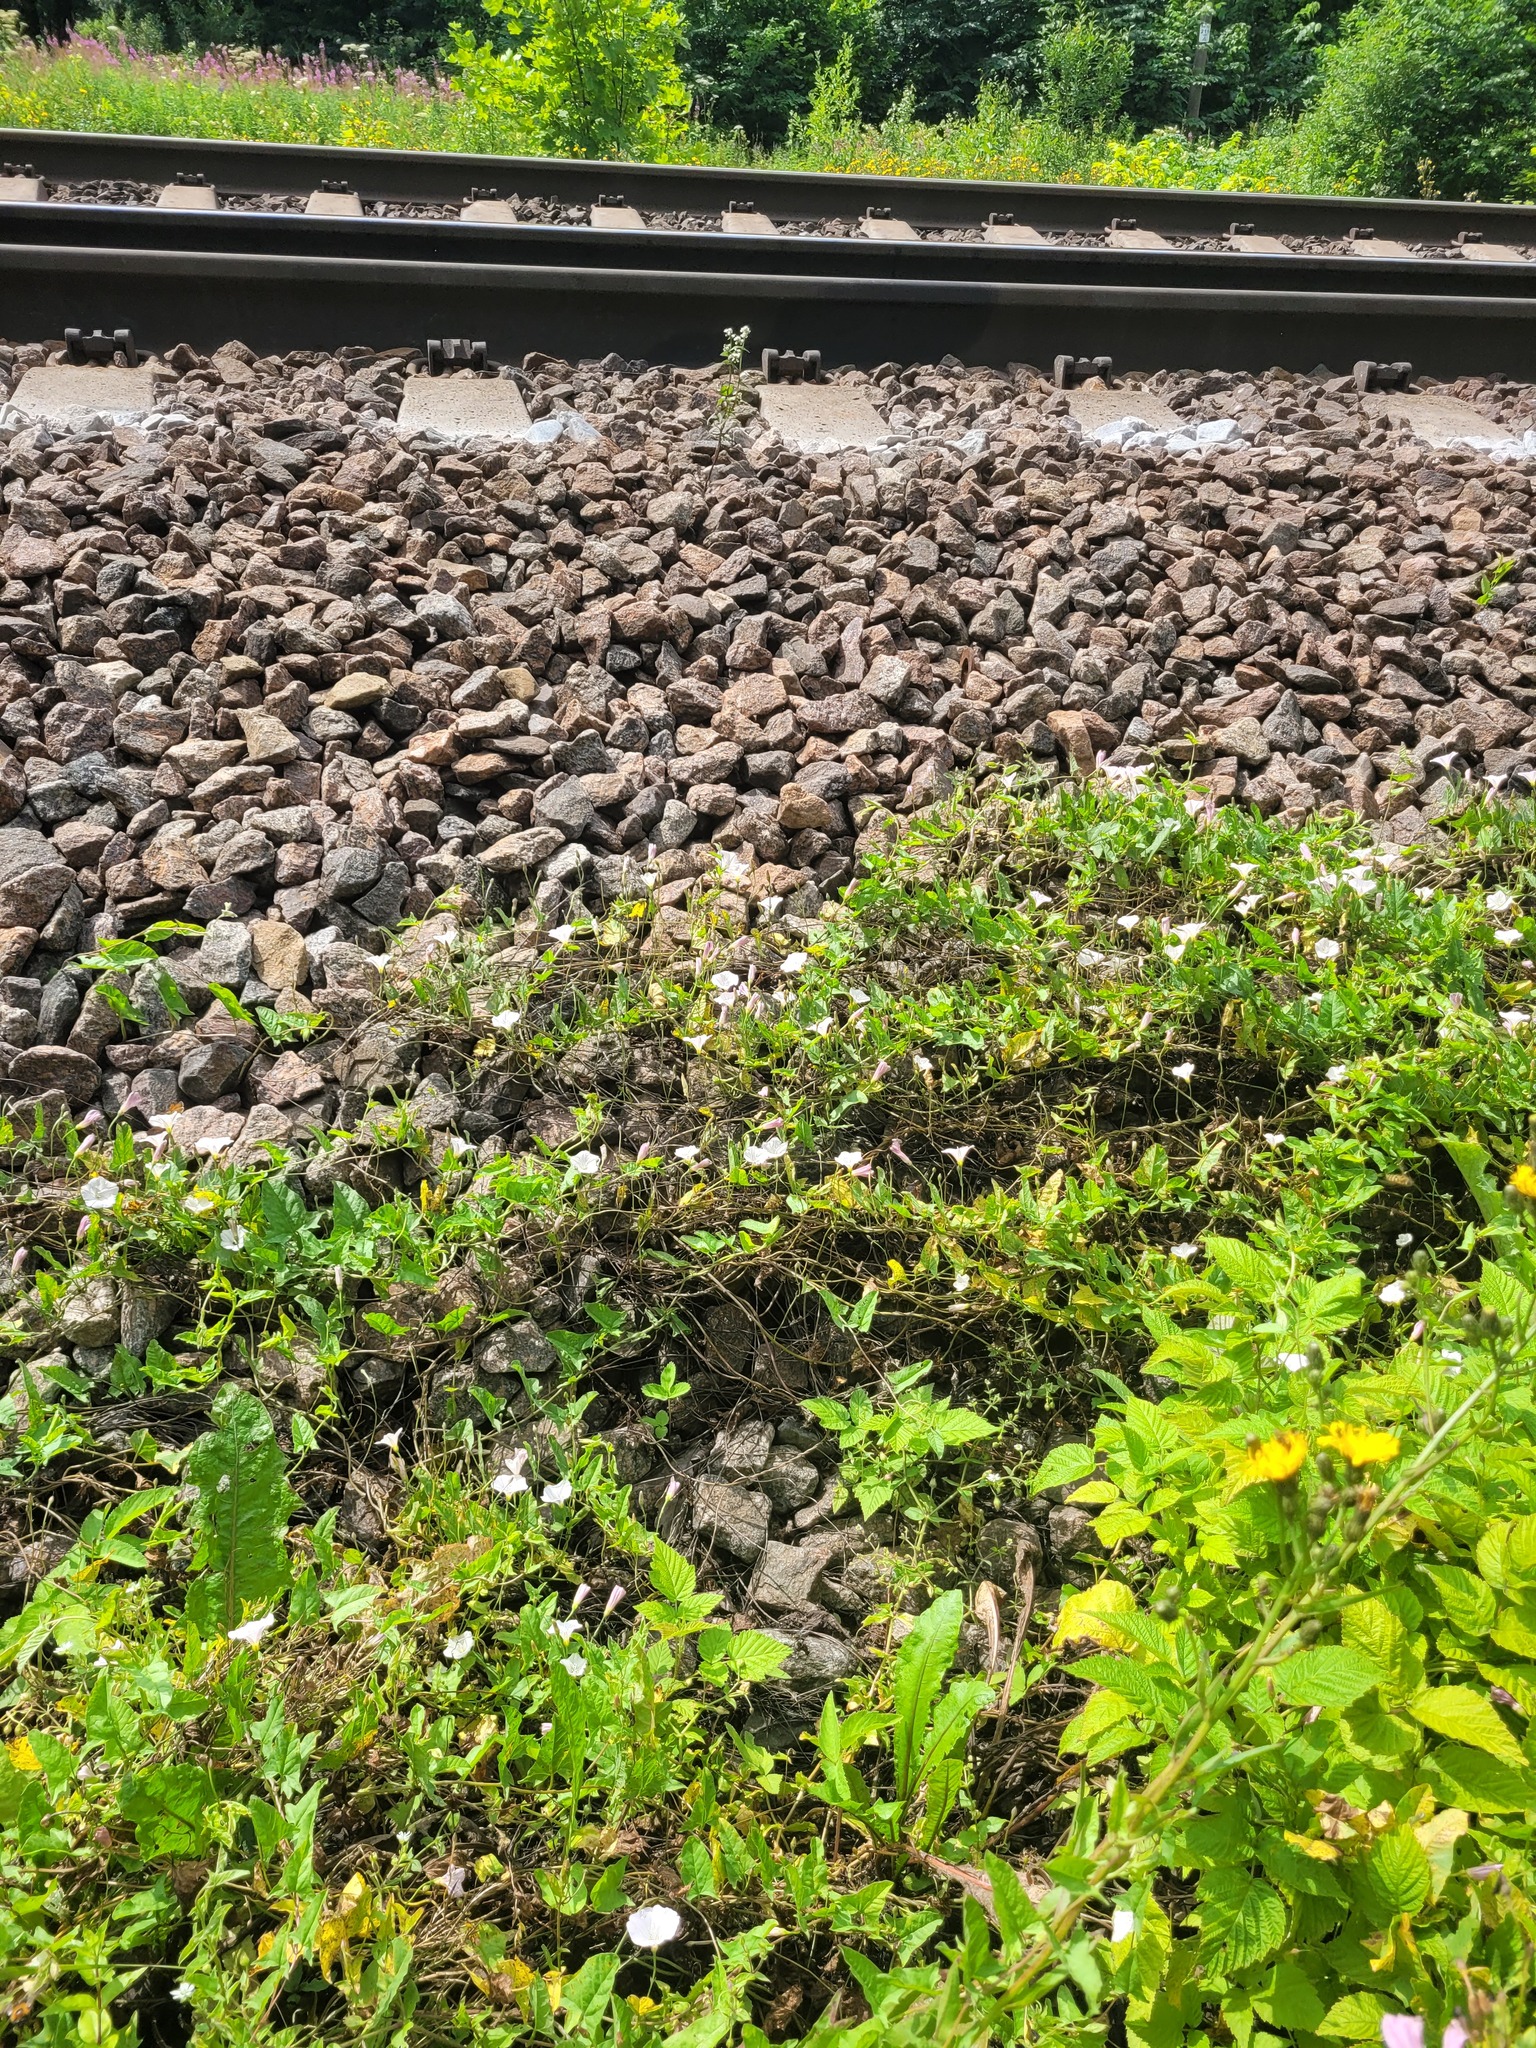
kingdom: Plantae
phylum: Tracheophyta
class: Magnoliopsida
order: Solanales
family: Convolvulaceae
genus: Convolvulus
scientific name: Convolvulus arvensis
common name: Field bindweed
